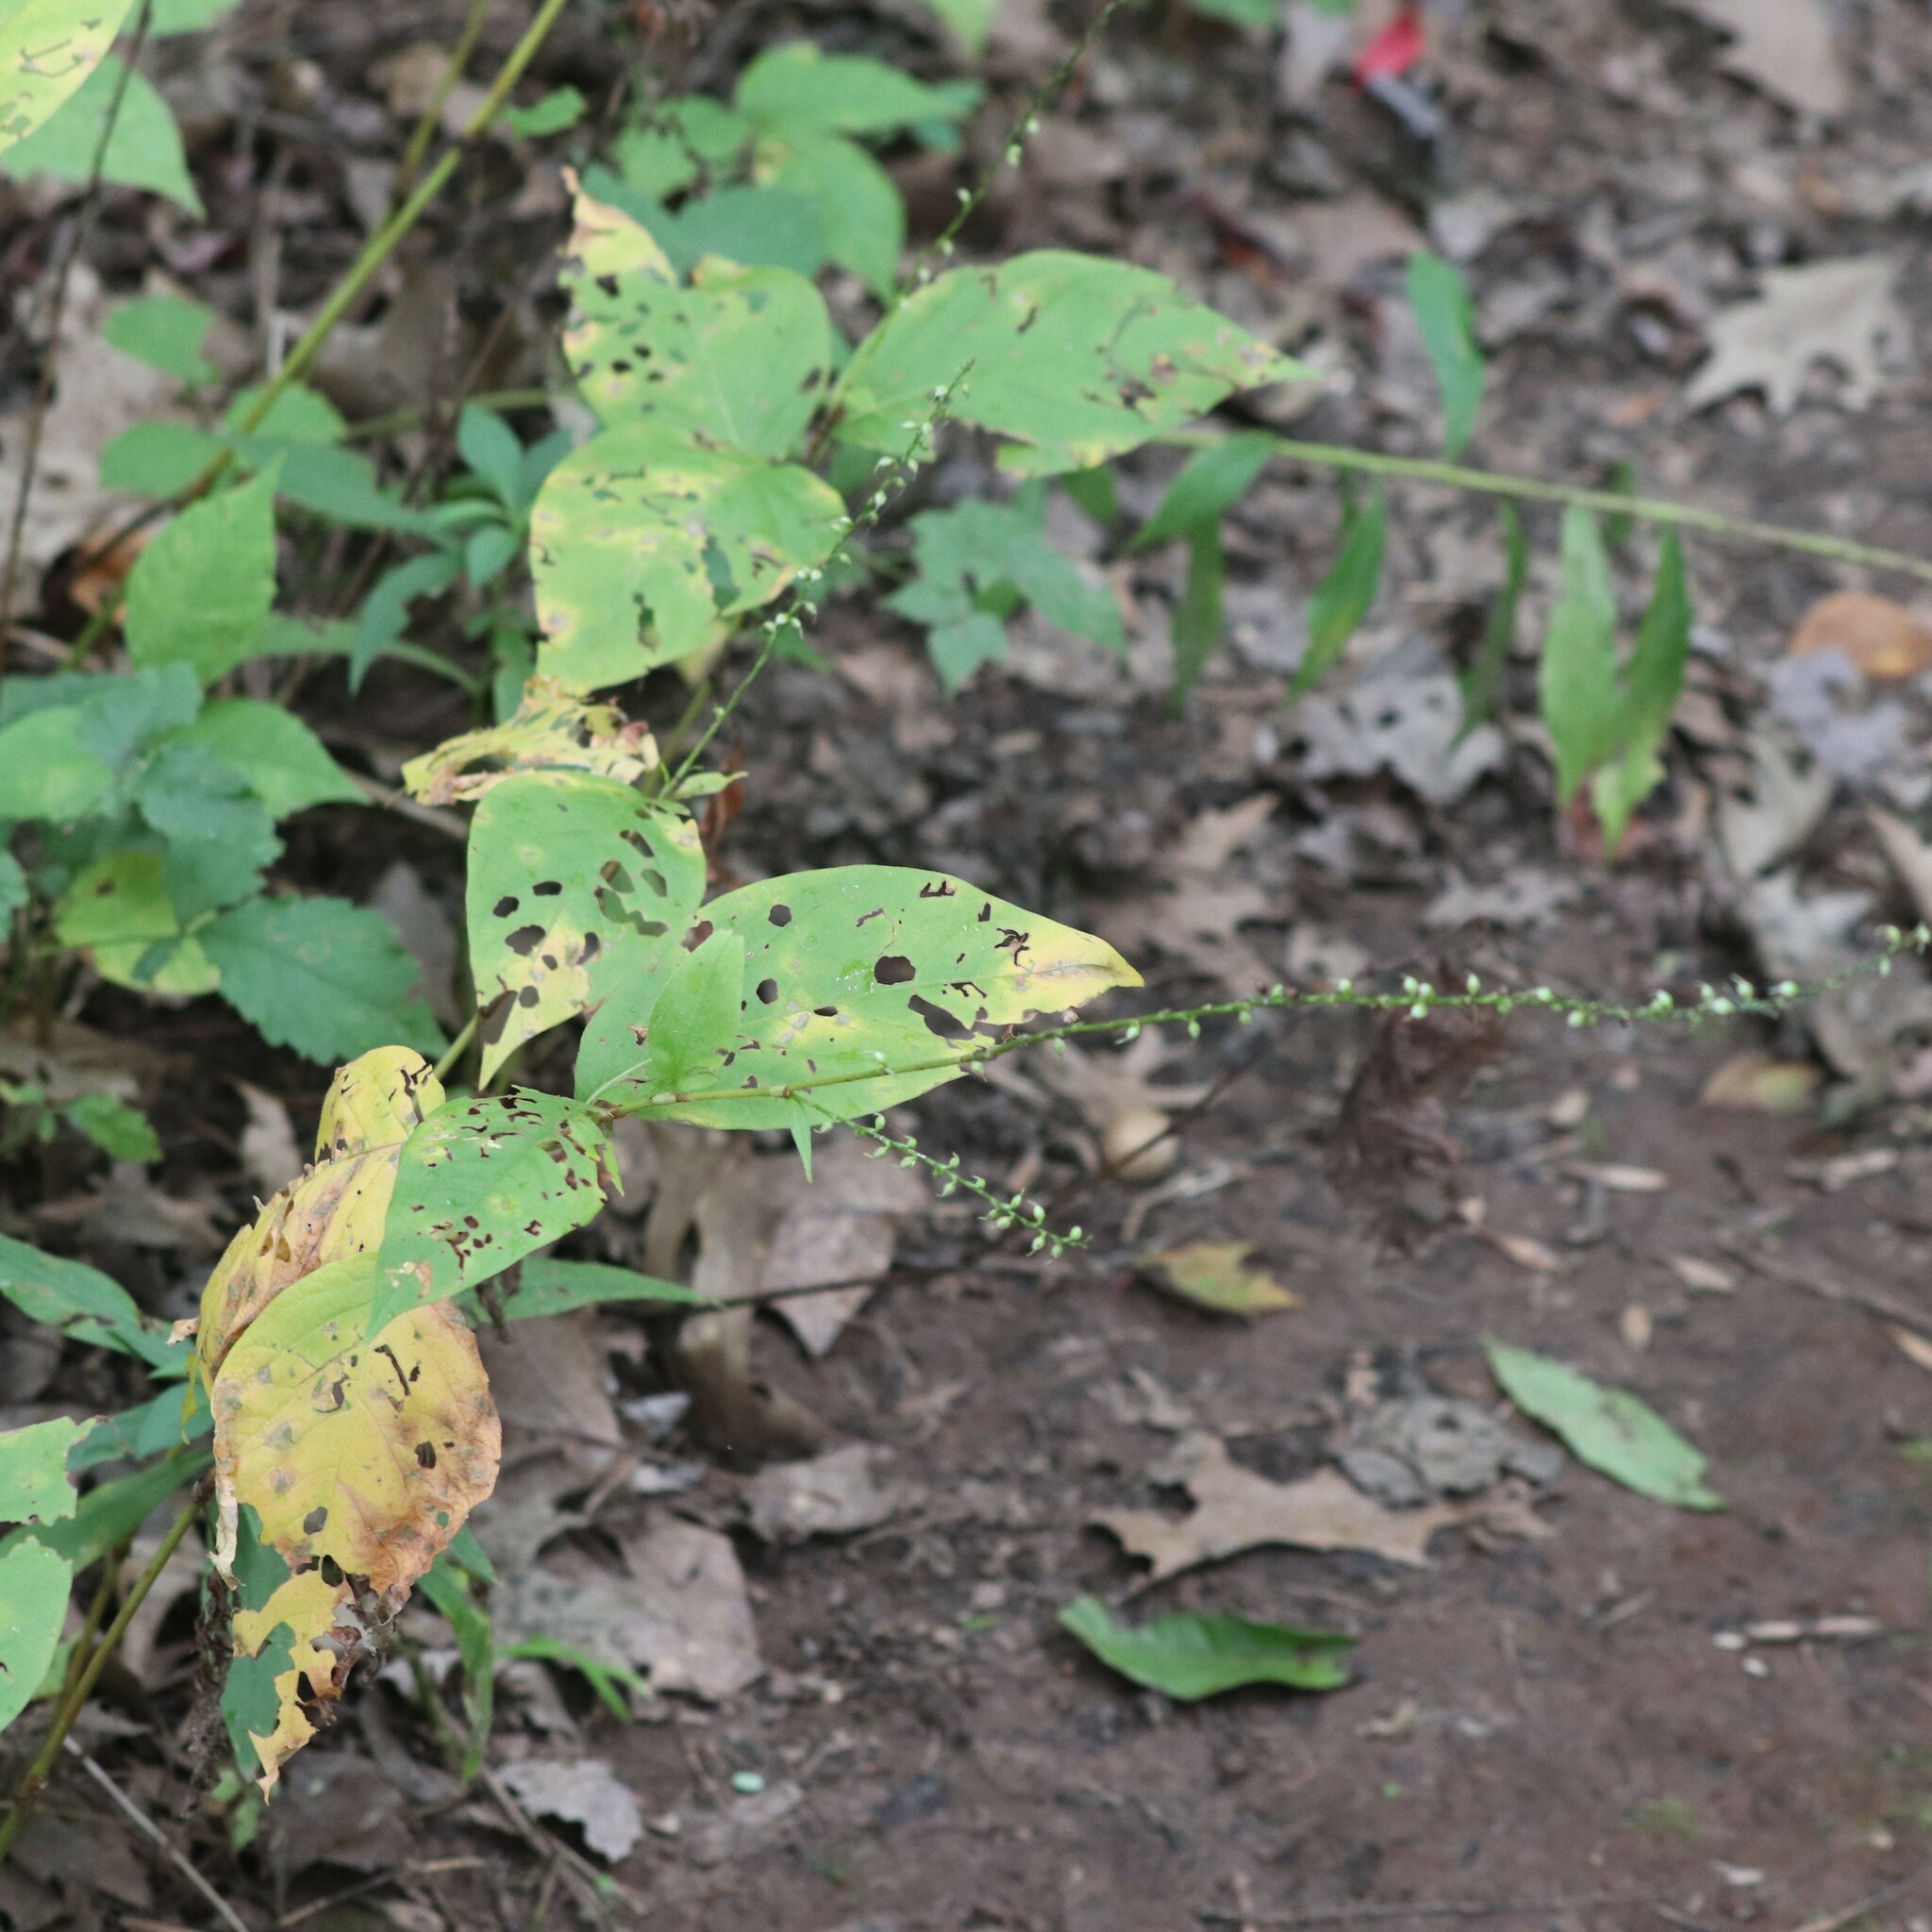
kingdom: Plantae
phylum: Tracheophyta
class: Magnoliopsida
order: Caryophyllales
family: Polygonaceae
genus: Persicaria
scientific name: Persicaria virginiana
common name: Jumpseed
